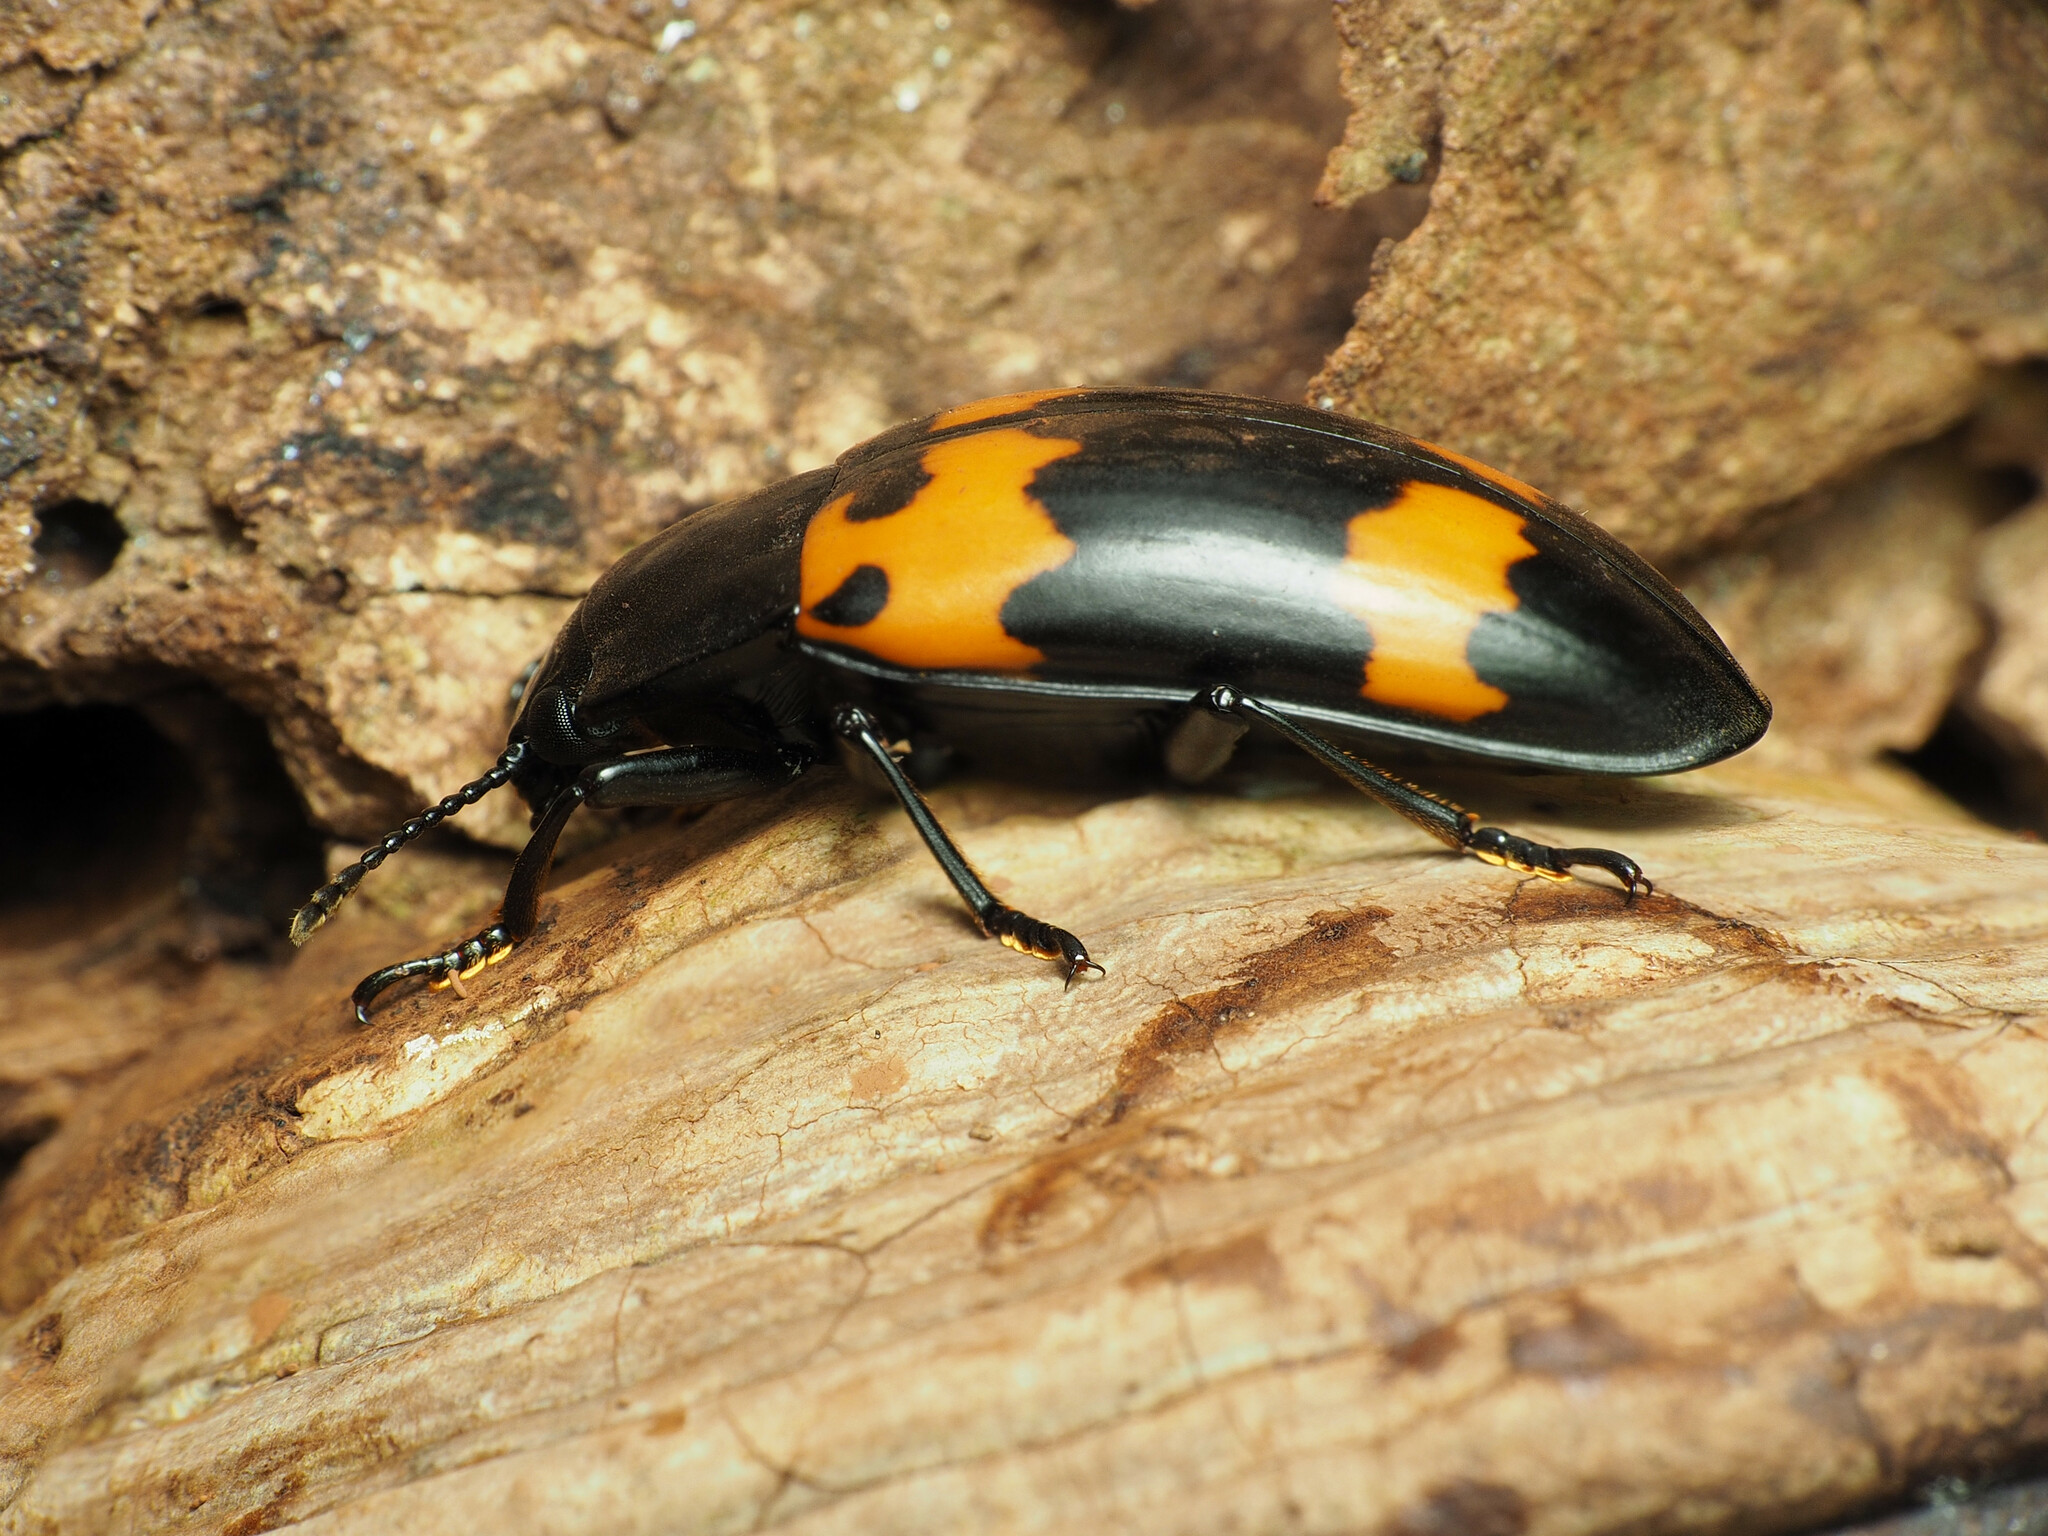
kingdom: Animalia
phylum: Arthropoda
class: Insecta
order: Coleoptera
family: Erotylidae
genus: Megalodacne
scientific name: Megalodacne heros
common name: Pleasing fungus beetle
